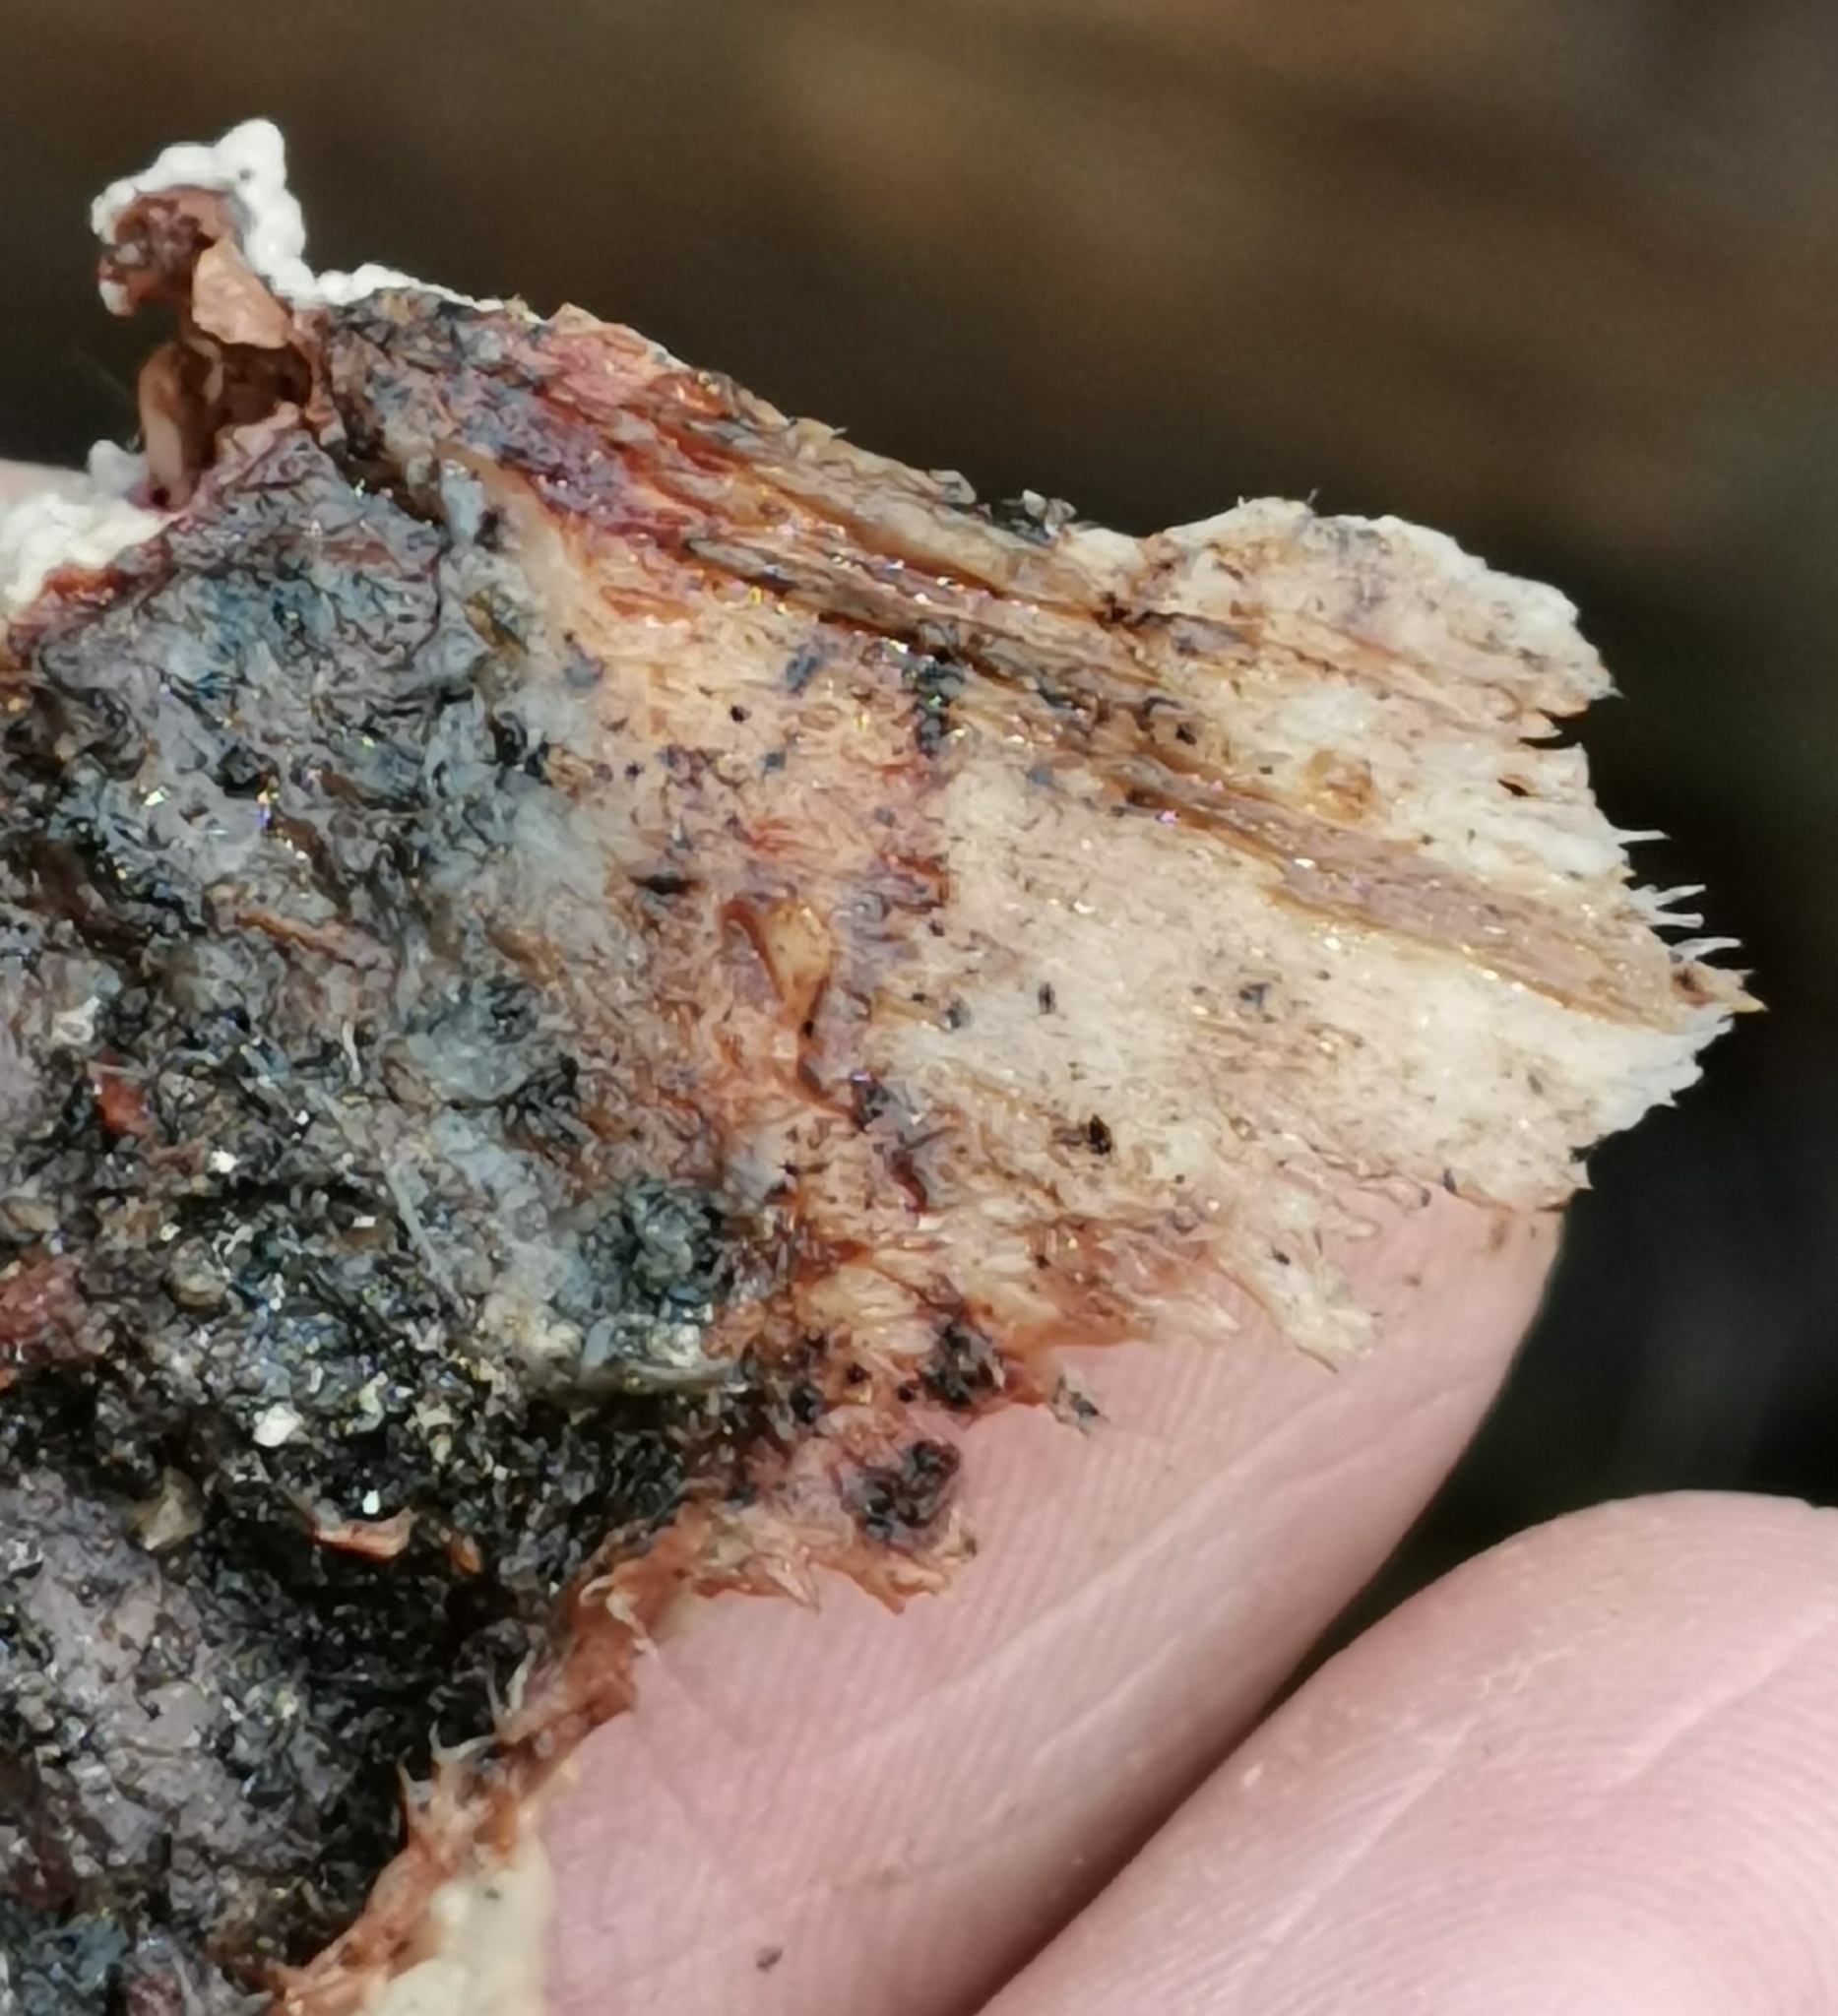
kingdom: Fungi
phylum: Basidiomycota
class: Agaricomycetes
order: Polyporales
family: Meruliaceae
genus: Hermanssonia
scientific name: Hermanssonia centrifuga
